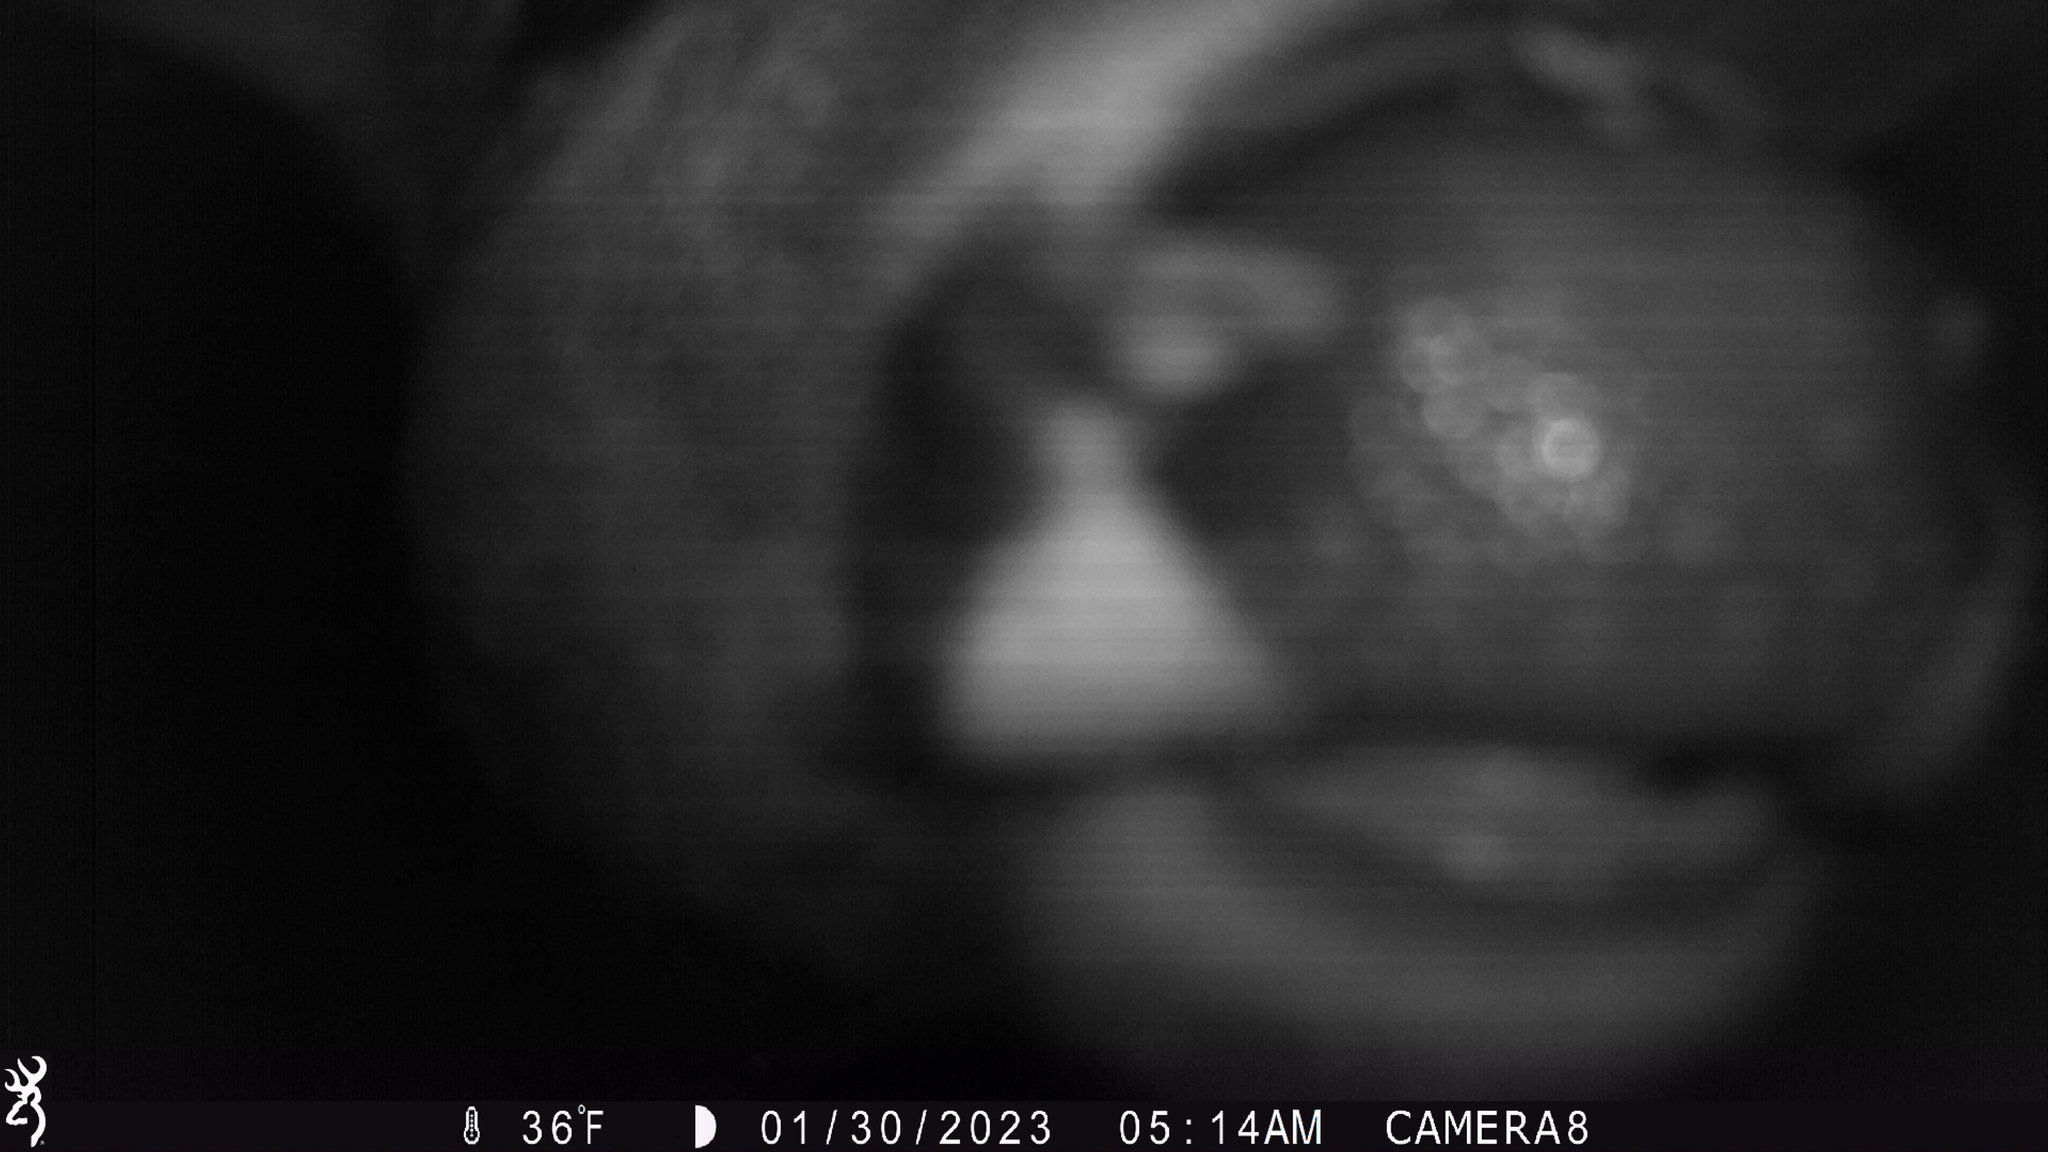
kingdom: Animalia
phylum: Chordata
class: Mammalia
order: Artiodactyla
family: Cervidae
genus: Odocoileus
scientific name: Odocoileus virginianus
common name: White-tailed deer
